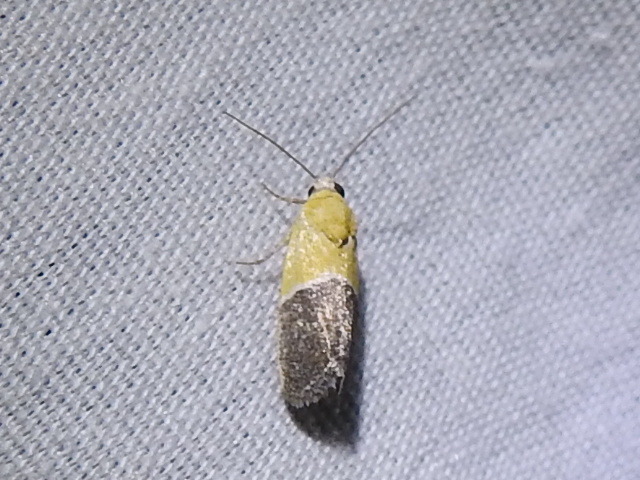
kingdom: Animalia
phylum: Arthropoda
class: Insecta
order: Lepidoptera
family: Noctuidae
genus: Acontia
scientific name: Acontia clausula
